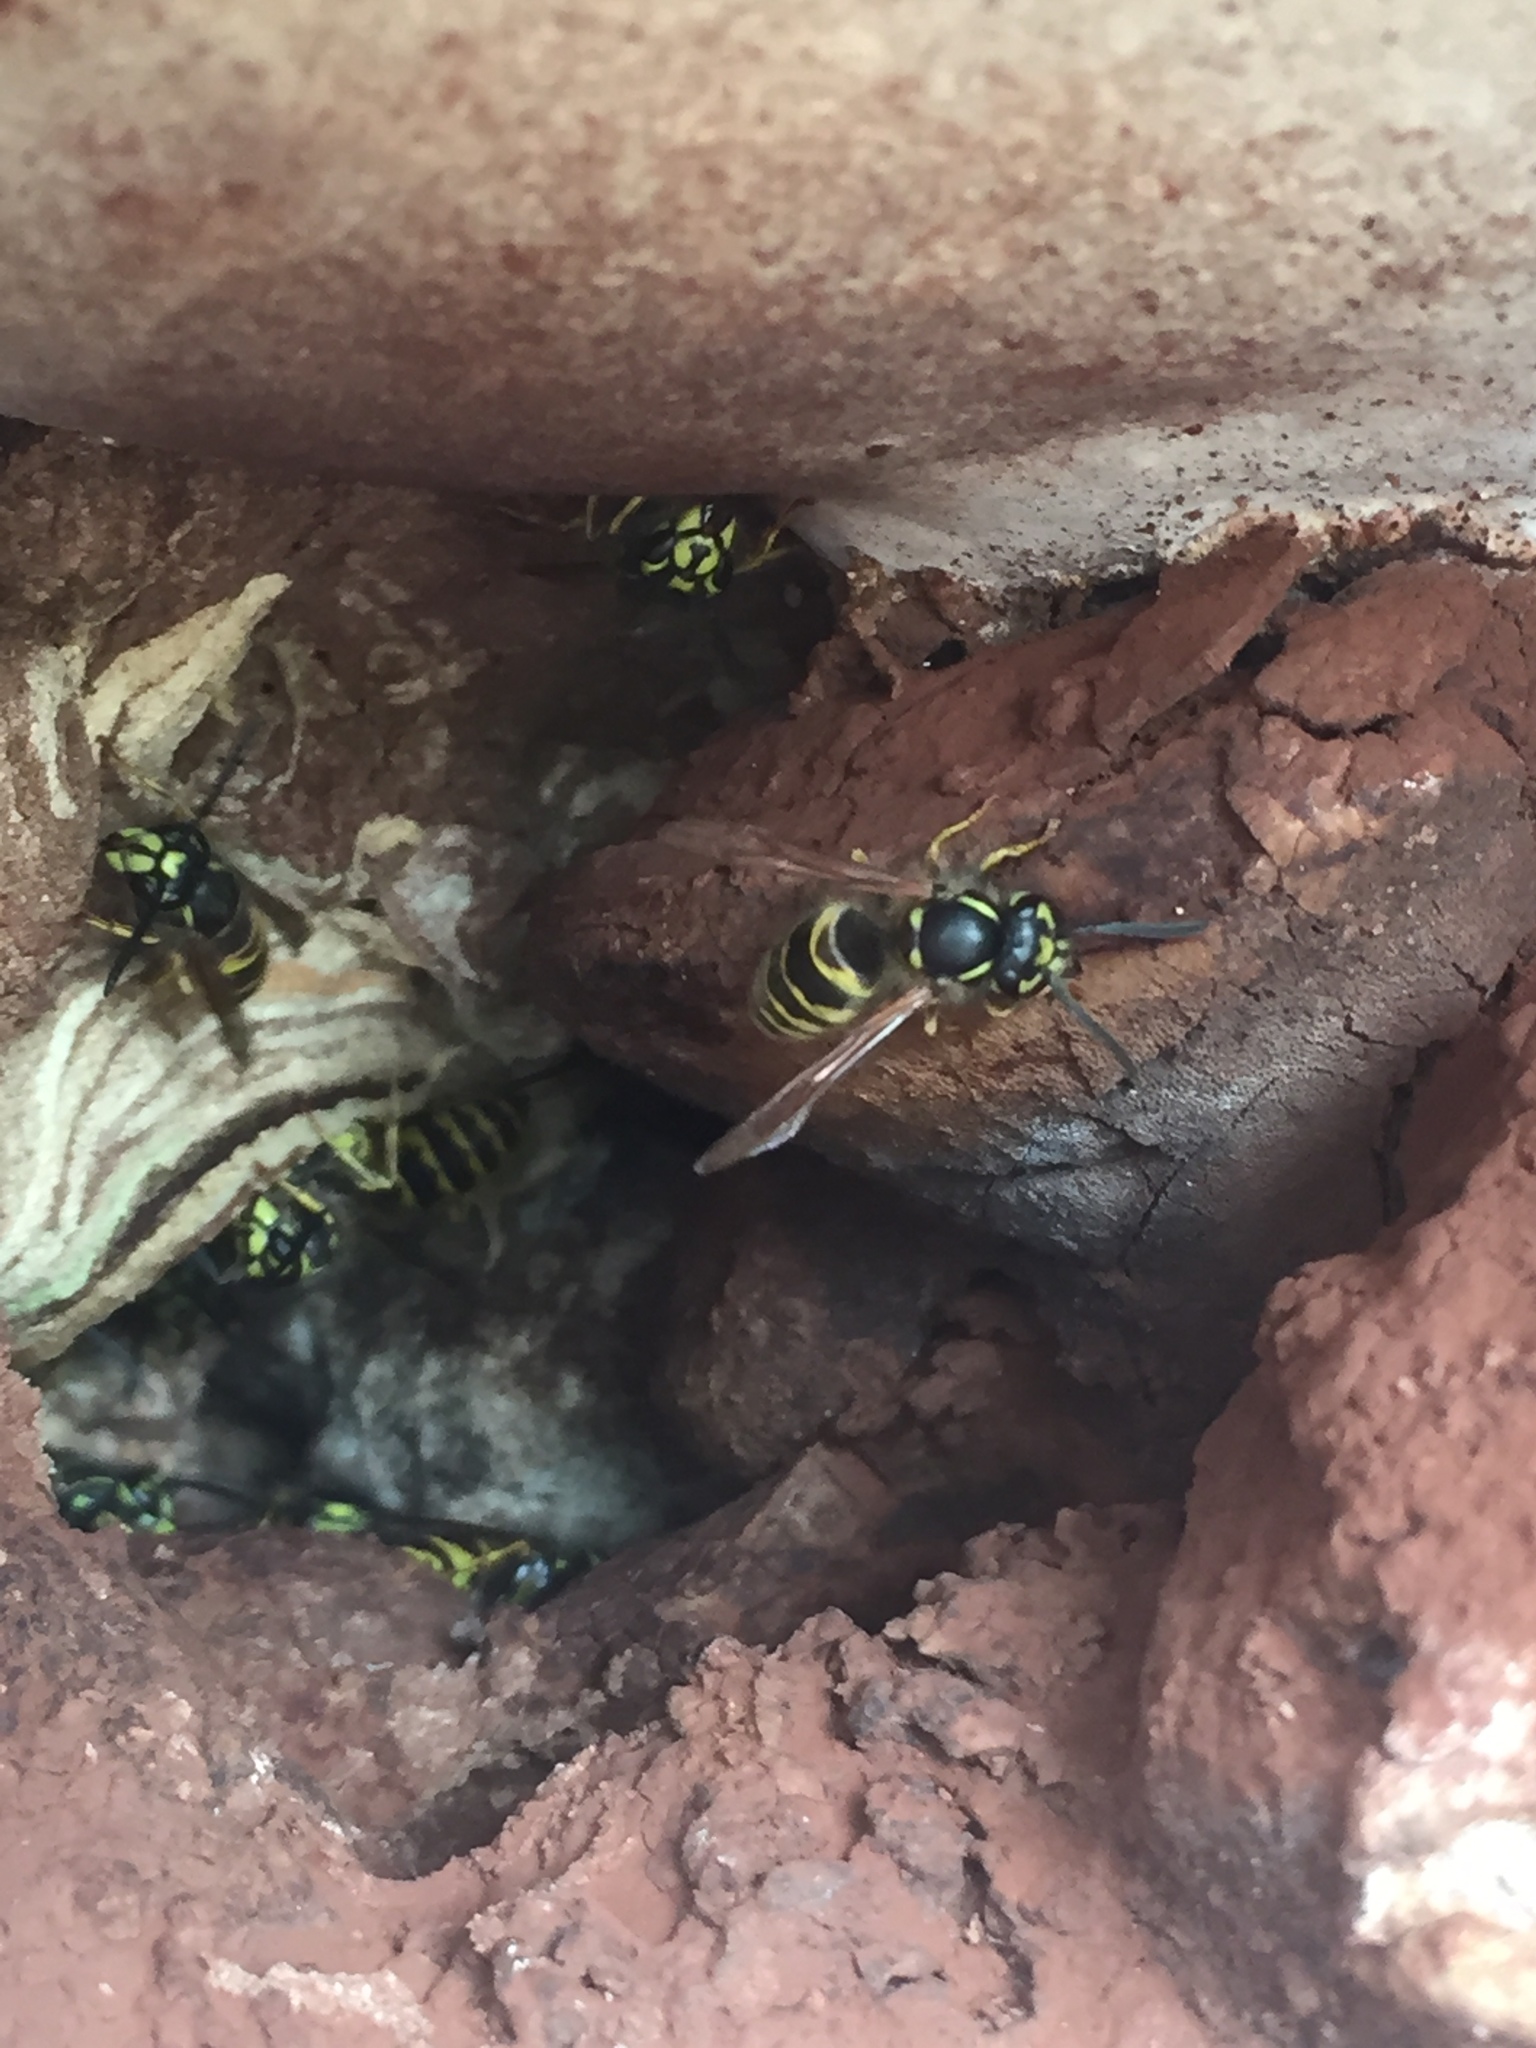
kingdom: Animalia
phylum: Arthropoda
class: Insecta
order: Hymenoptera
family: Vespidae
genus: Vespula
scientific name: Vespula vulgaris
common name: Common wasp
